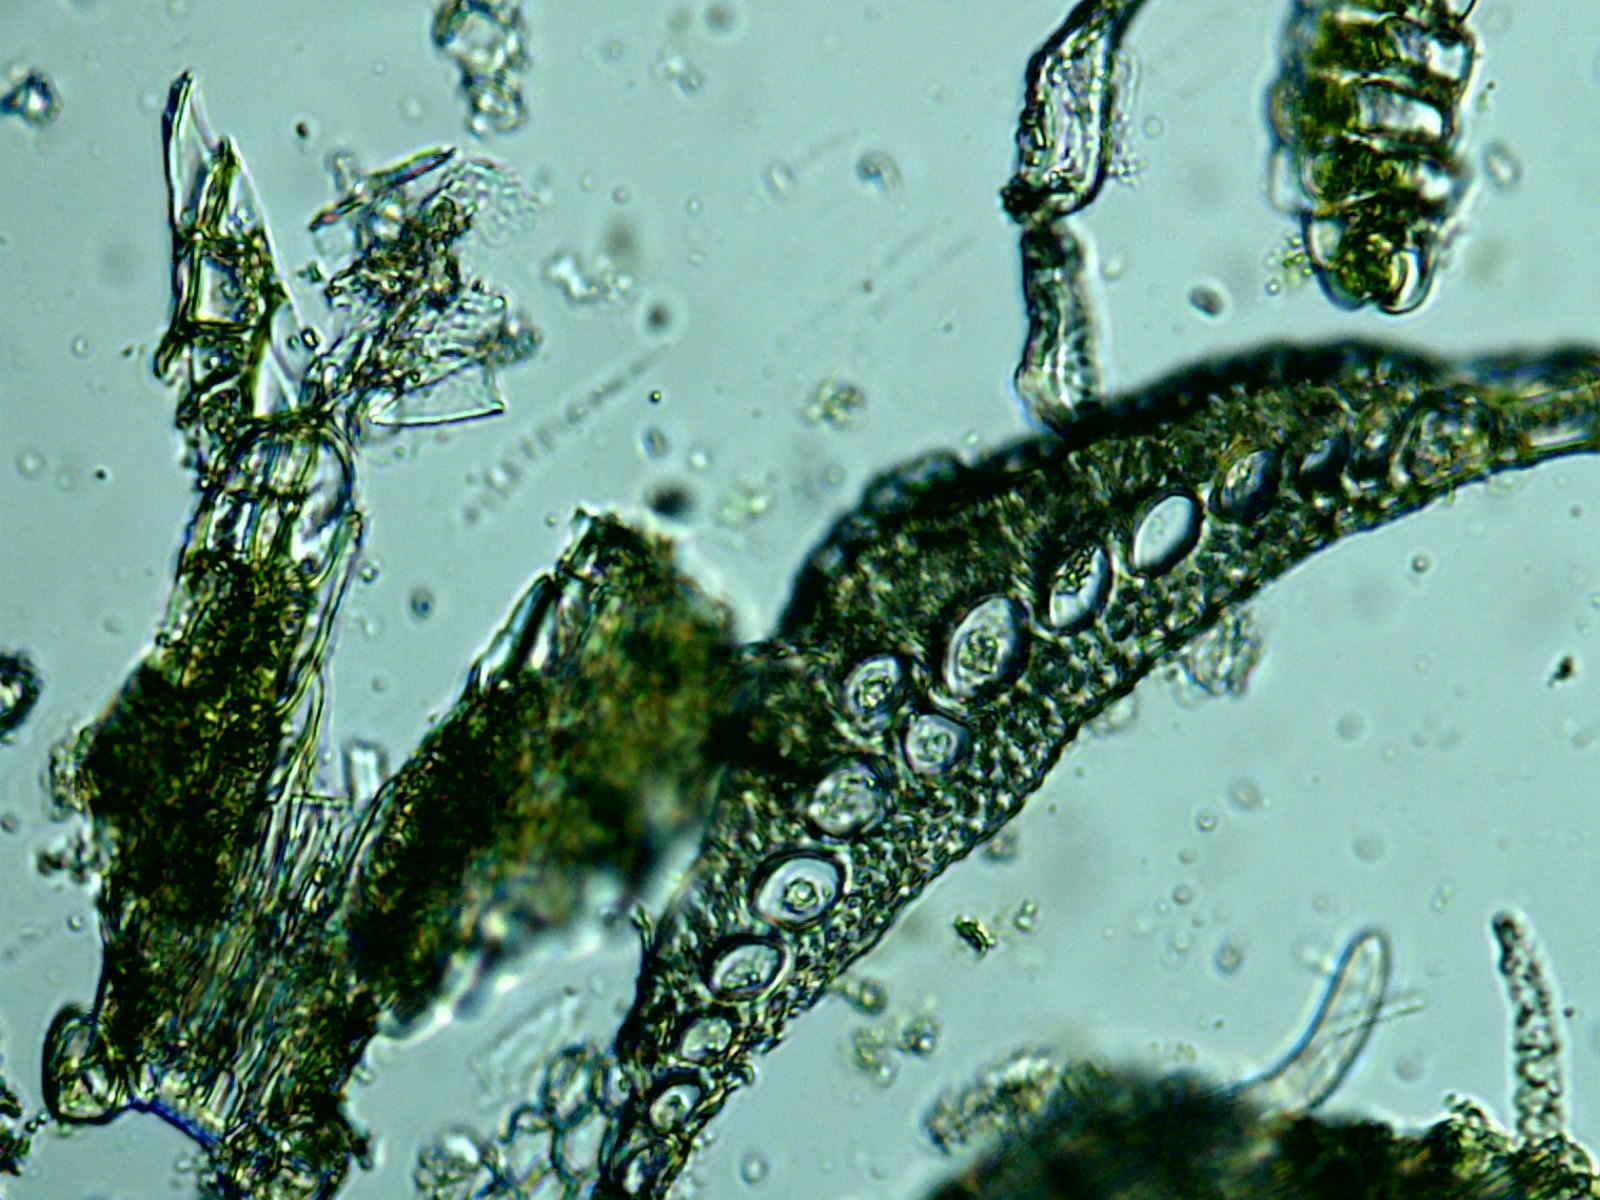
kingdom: Plantae
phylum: Bryophyta
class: Bryopsida
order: Dicranales
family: Dicranaceae
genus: Dicranum
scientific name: Dicranum scoparium
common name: Broom fork-moss
